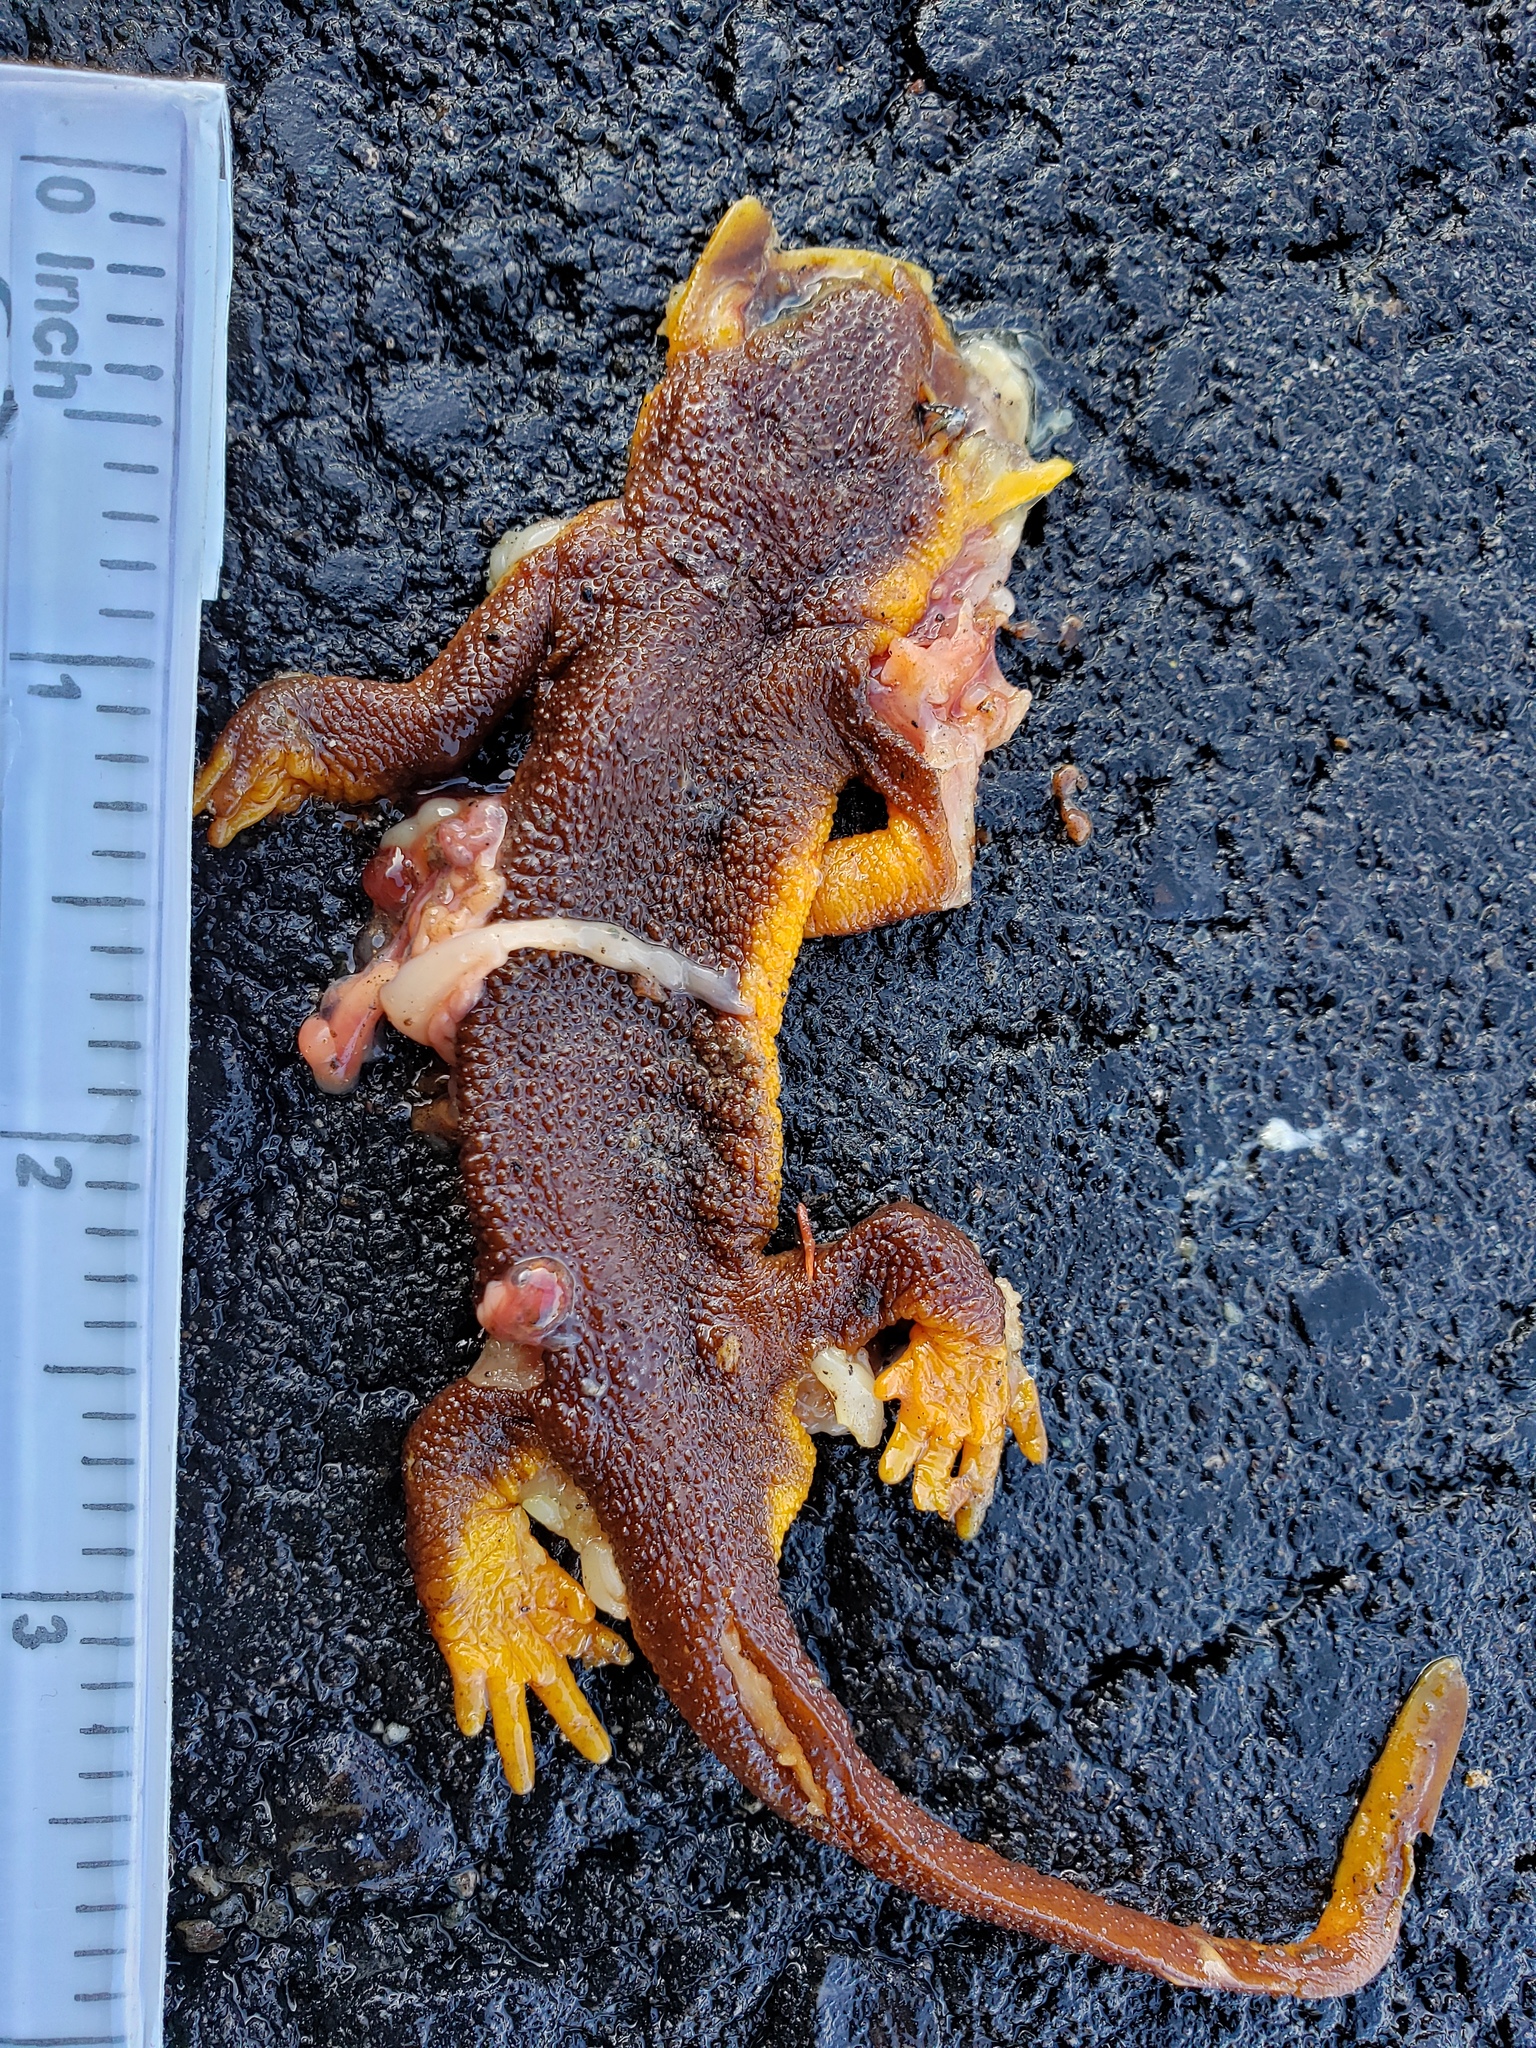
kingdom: Animalia
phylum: Chordata
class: Amphibia
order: Caudata
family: Salamandridae
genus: Taricha
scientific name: Taricha
